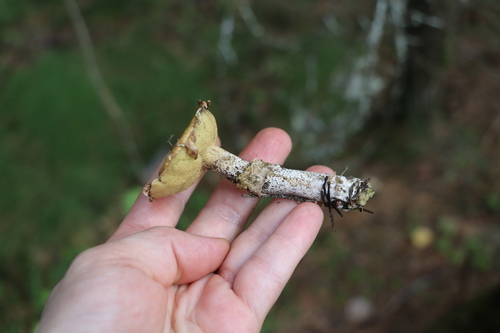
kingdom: Fungi
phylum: Basidiomycota
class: Agaricomycetes
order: Boletales
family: Suillaceae
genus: Suillus
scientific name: Suillus acidus
